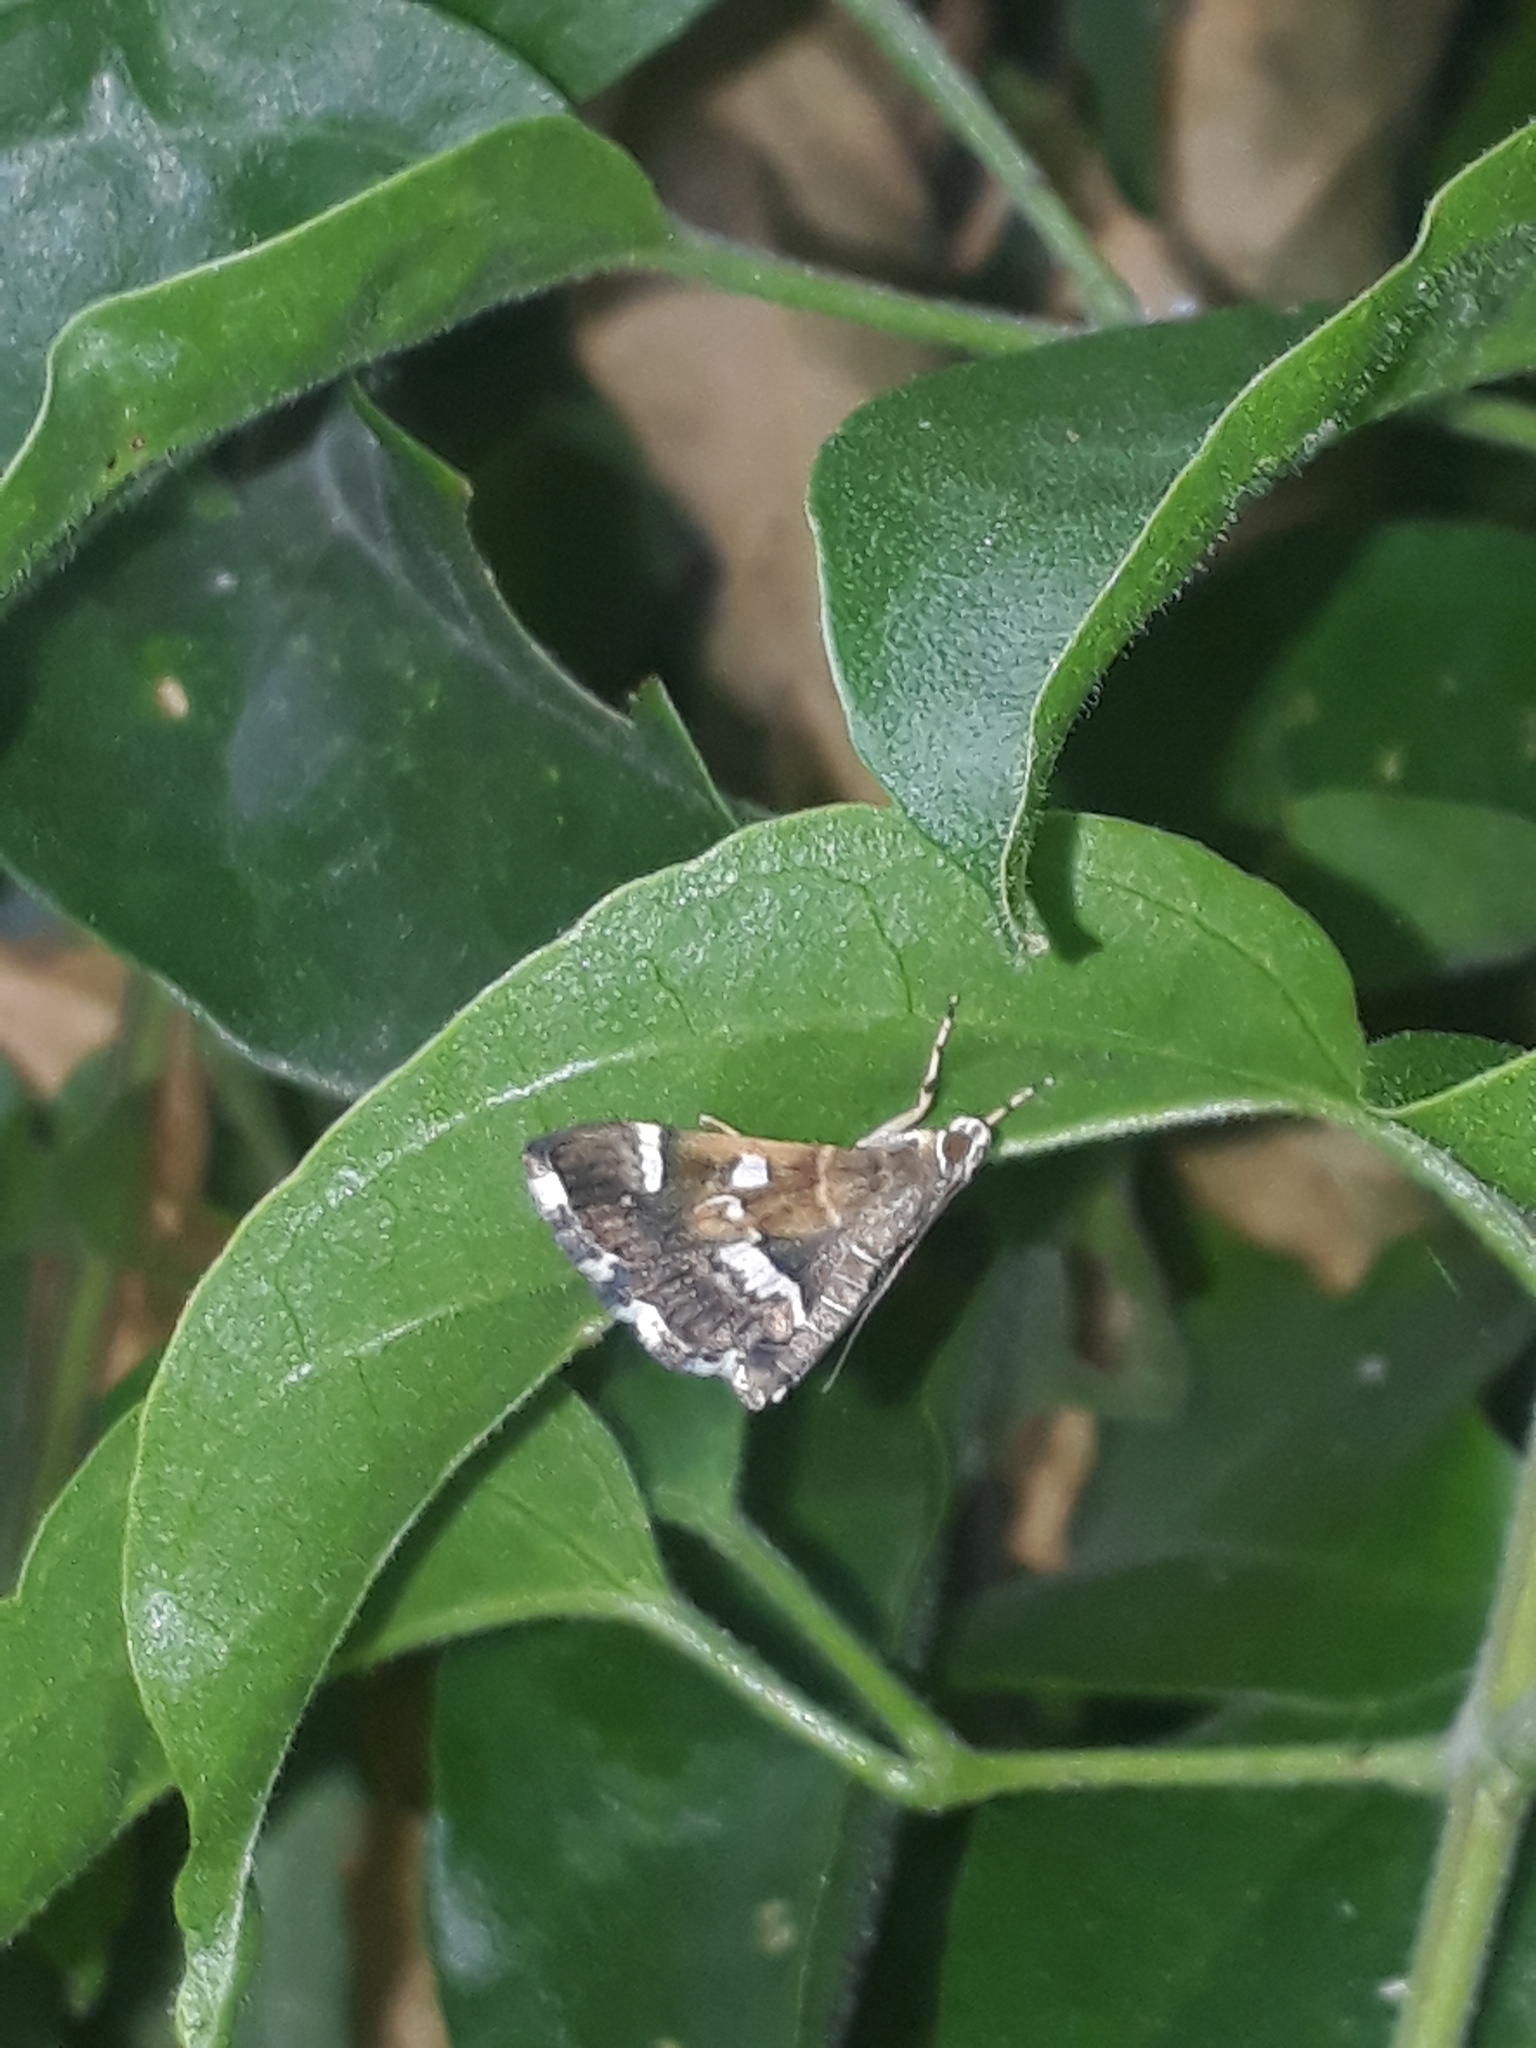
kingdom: Animalia
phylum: Arthropoda
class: Insecta
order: Lepidoptera
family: Crambidae
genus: Hymenia
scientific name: Hymenia perspectalis
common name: Spotted beet webworm
